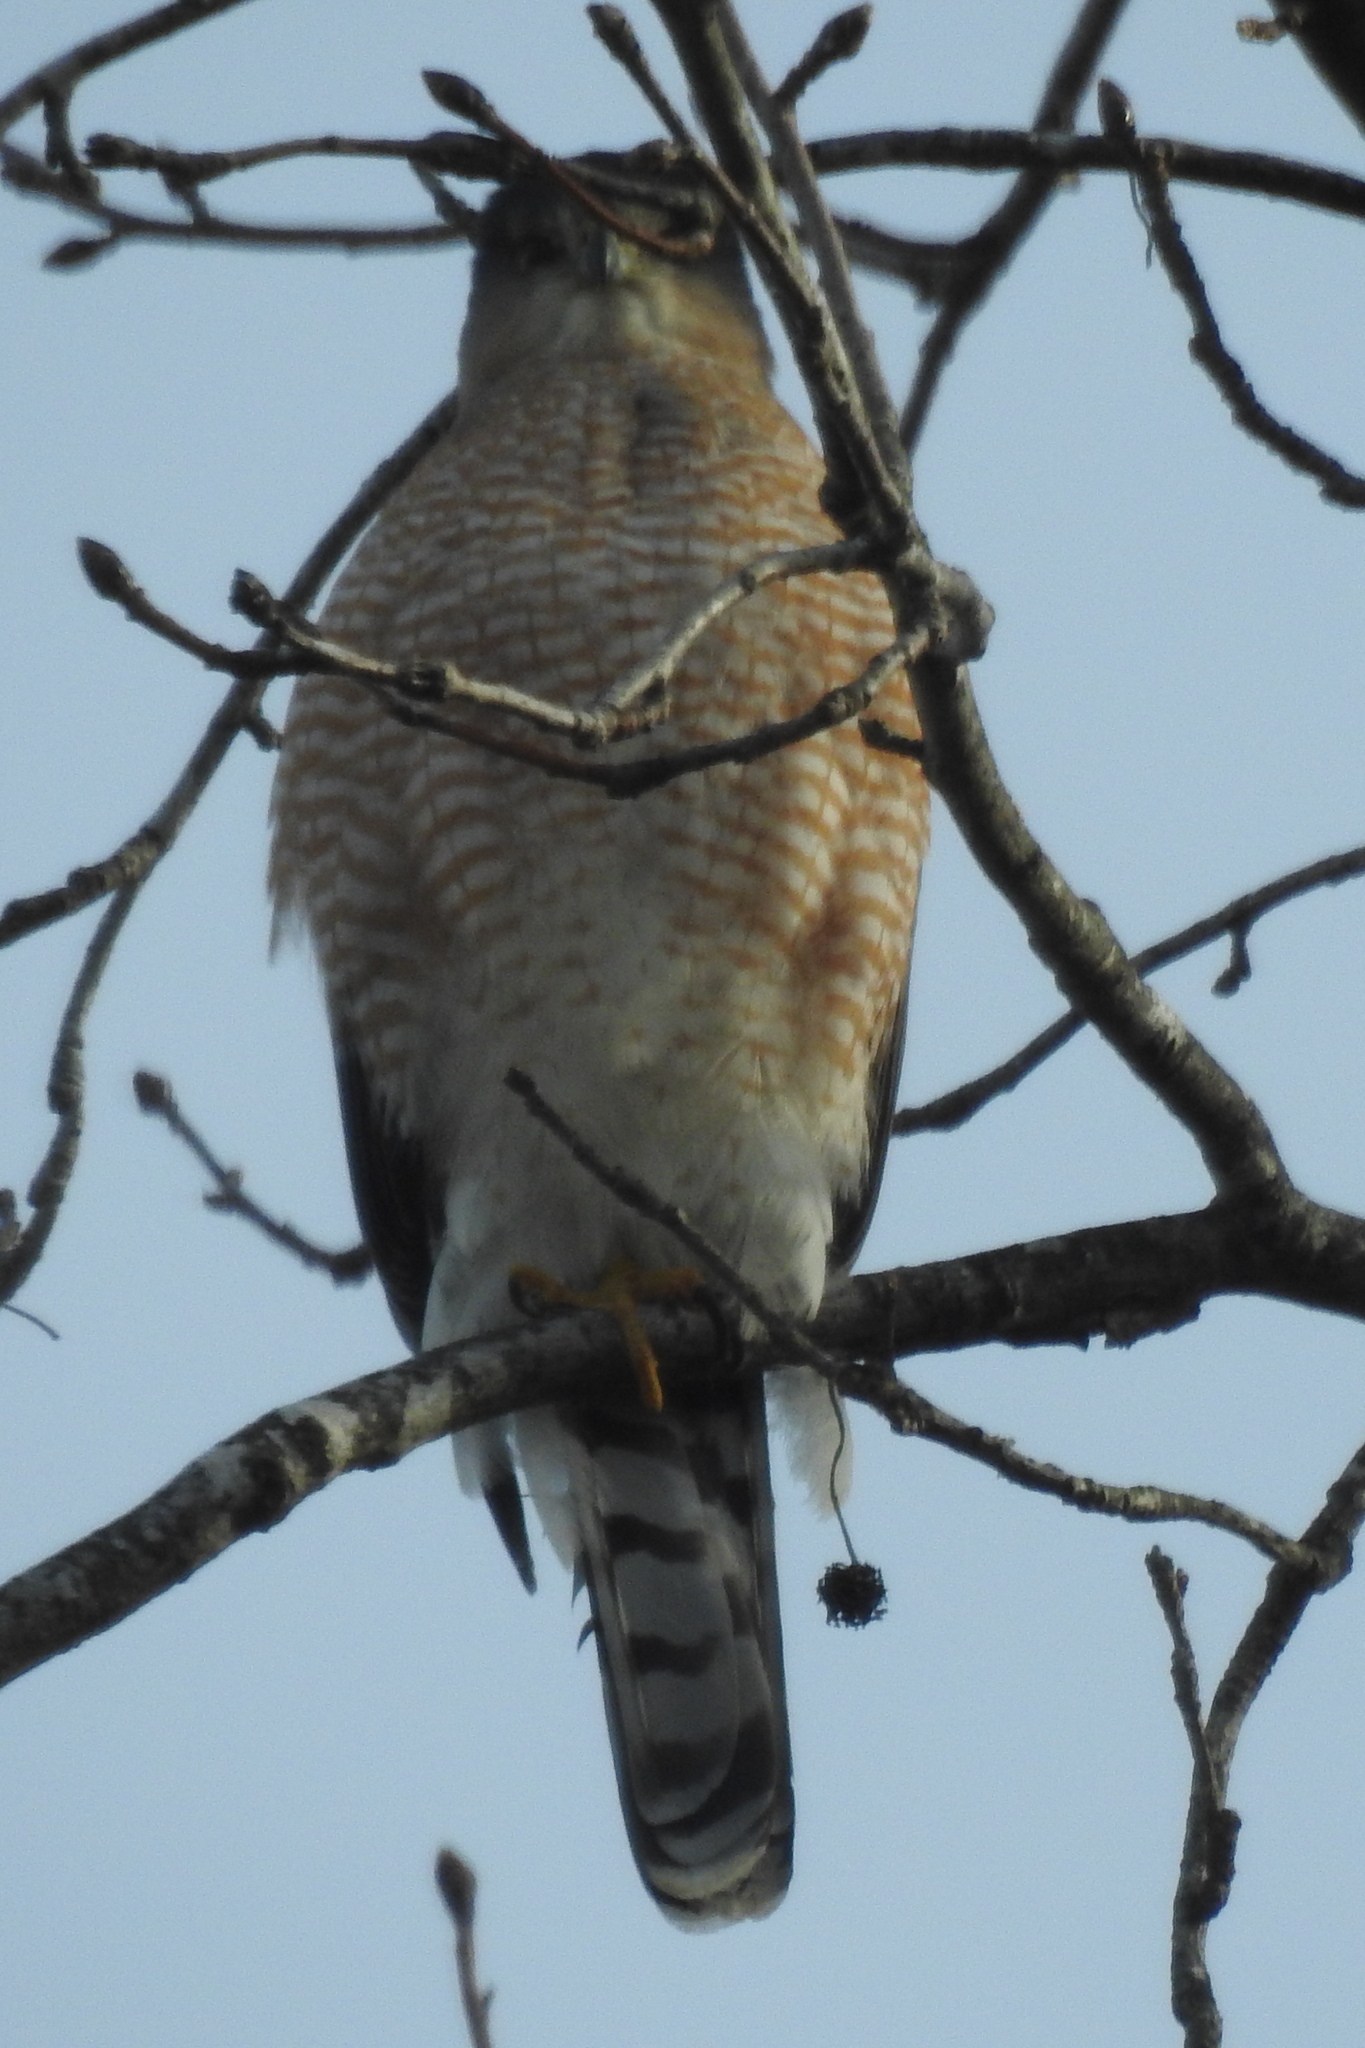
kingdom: Animalia
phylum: Chordata
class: Aves
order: Accipitriformes
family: Accipitridae
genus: Accipiter
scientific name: Accipiter cooperii
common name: Cooper's hawk
